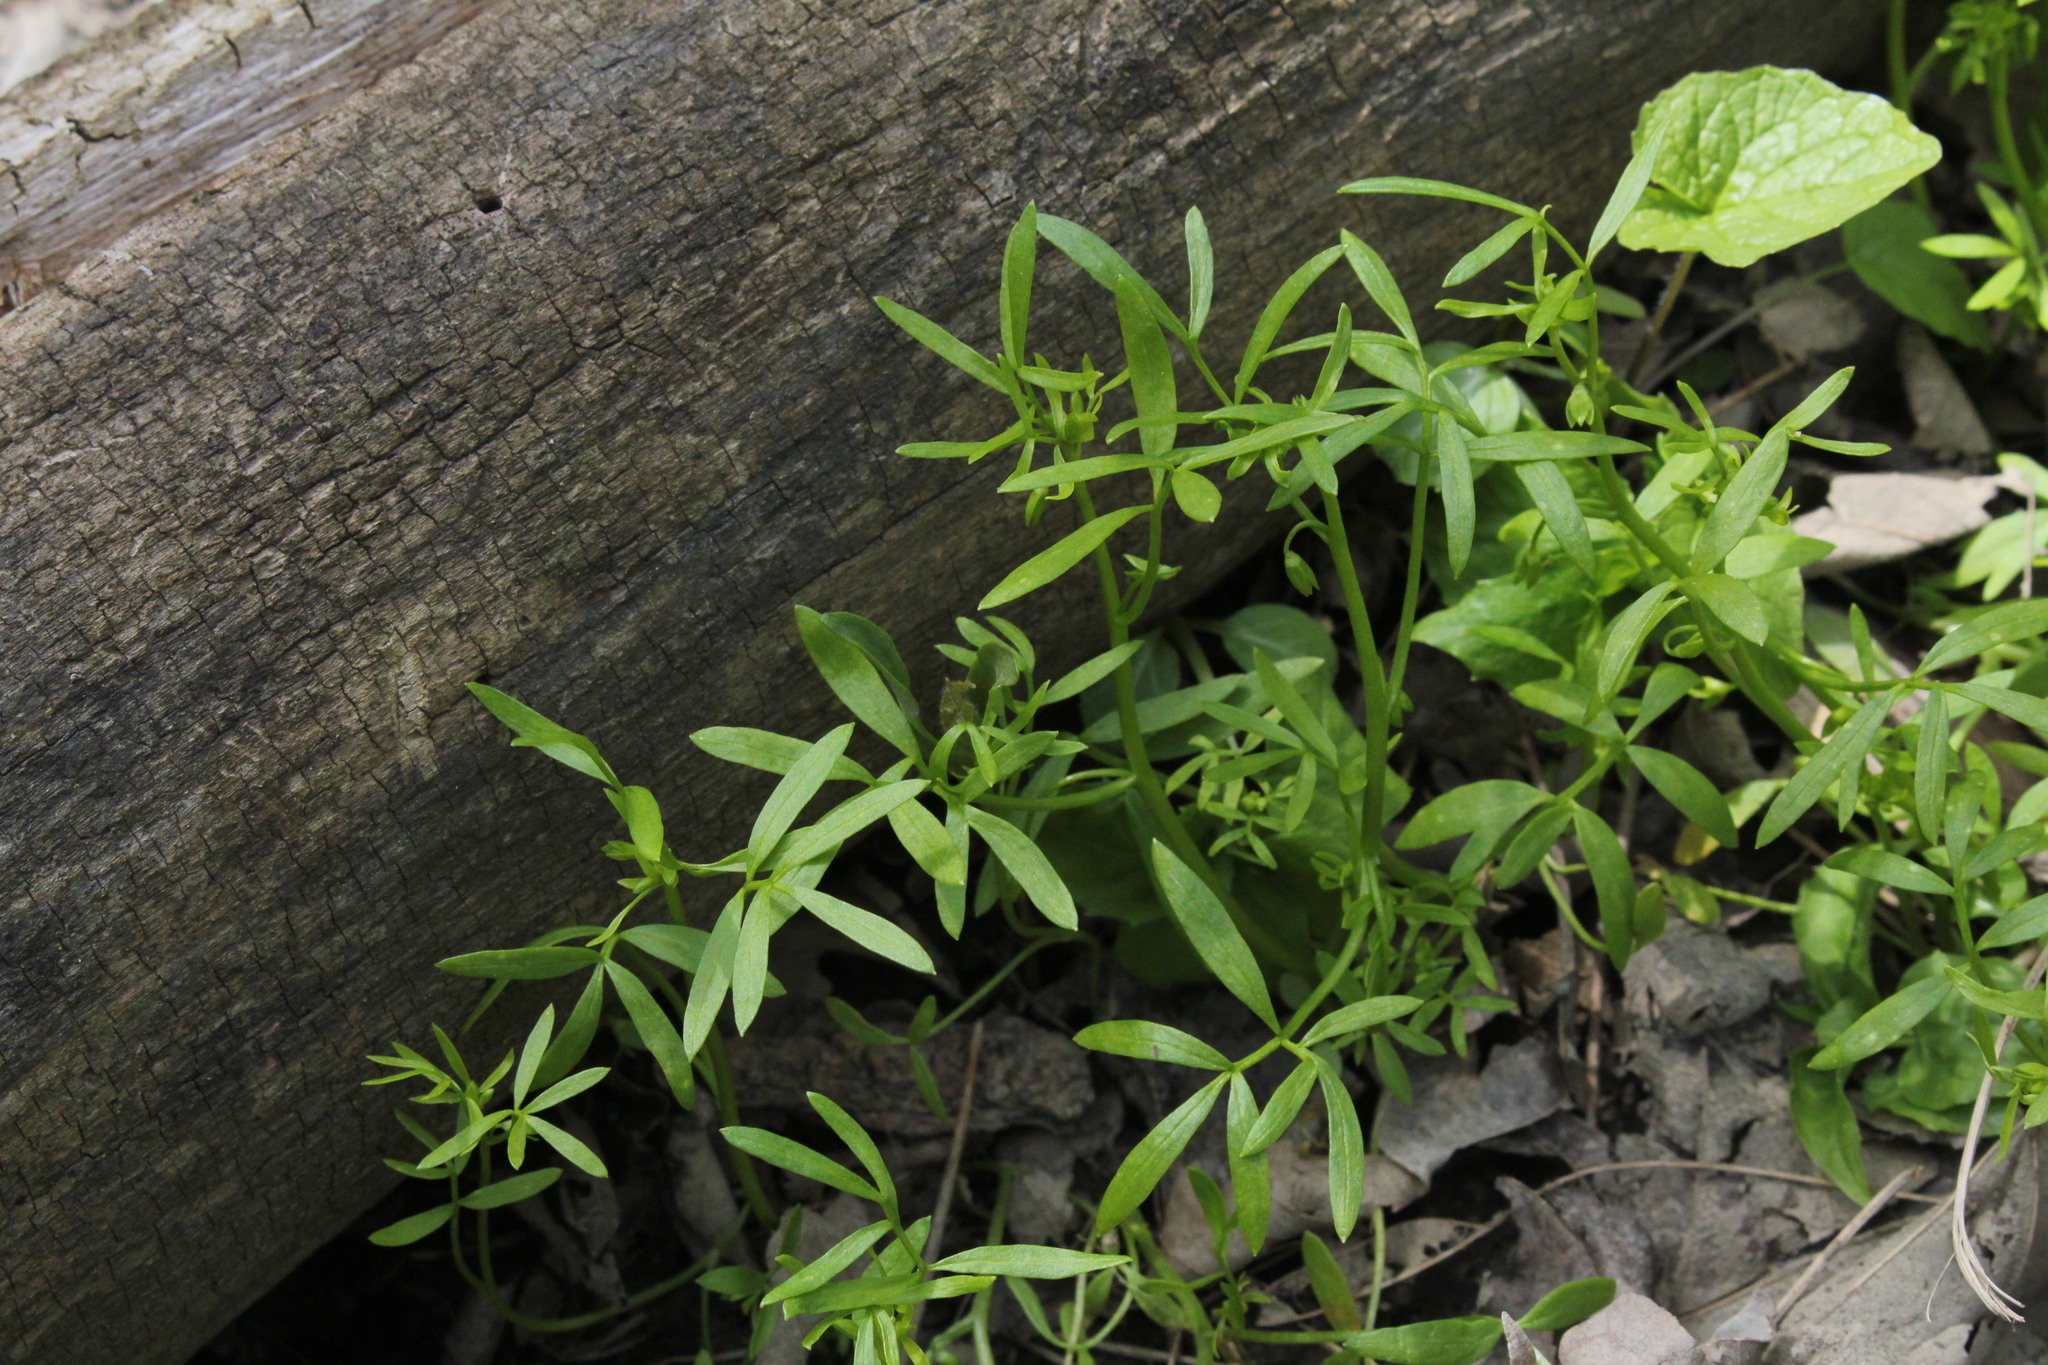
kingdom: Plantae
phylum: Tracheophyta
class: Magnoliopsida
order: Brassicales
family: Limnanthaceae
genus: Floerkea
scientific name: Floerkea proserpinacoides
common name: False mermaid
